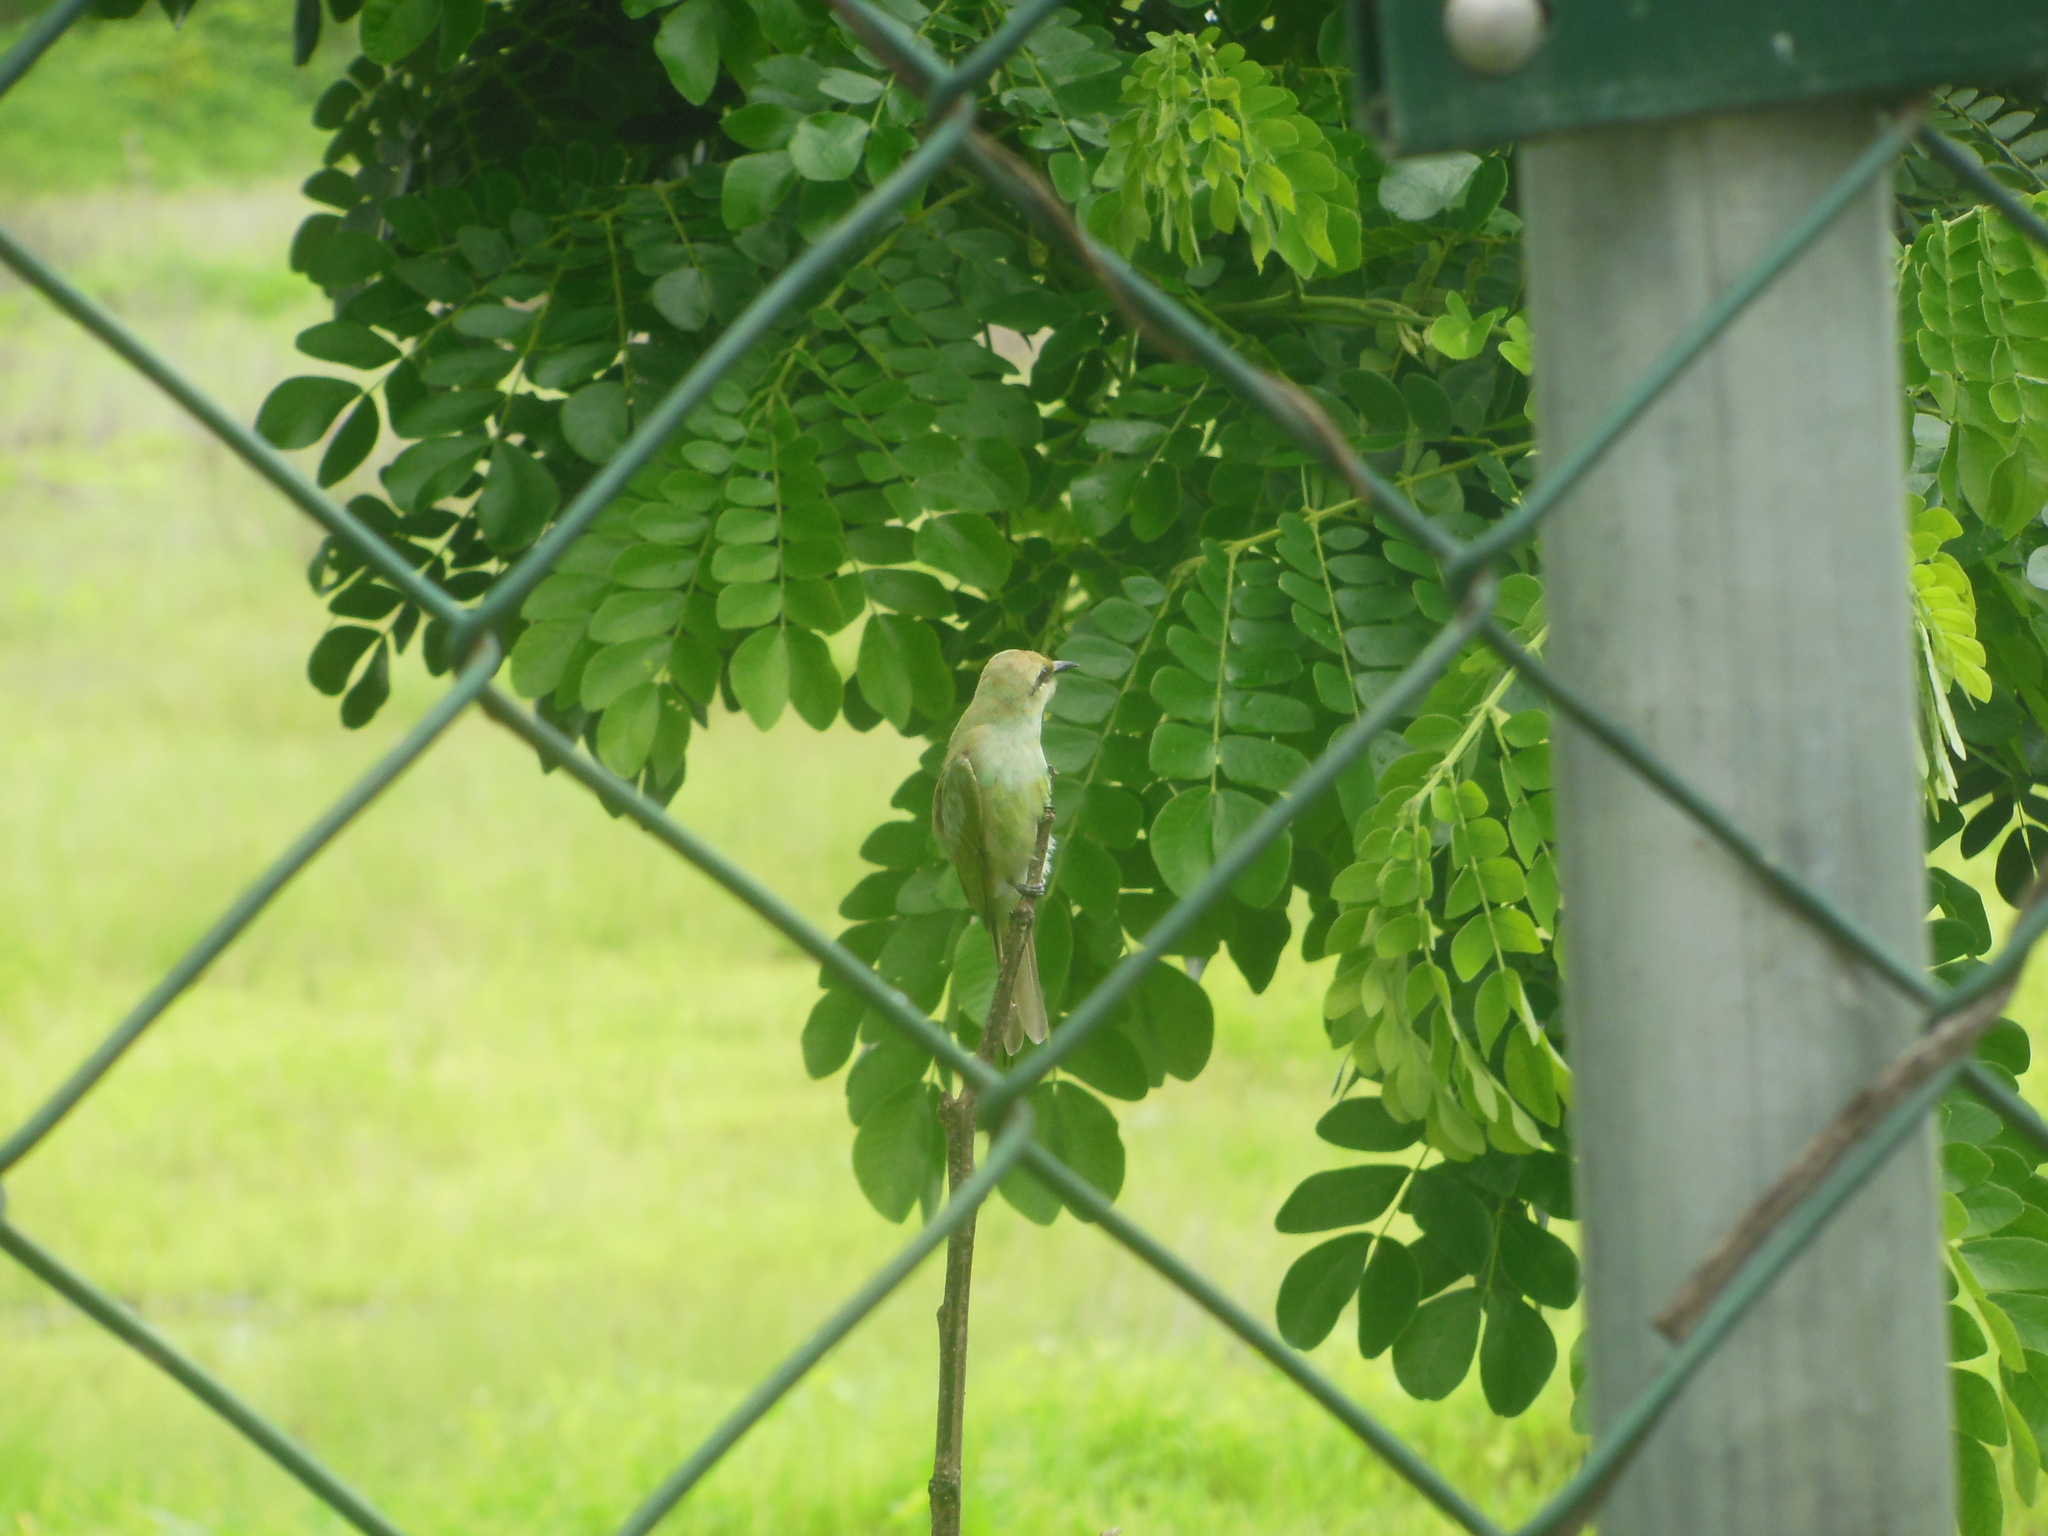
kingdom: Animalia
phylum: Chordata
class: Aves
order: Coraciiformes
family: Meropidae
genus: Merops
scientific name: Merops orientalis
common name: Green bee-eater
